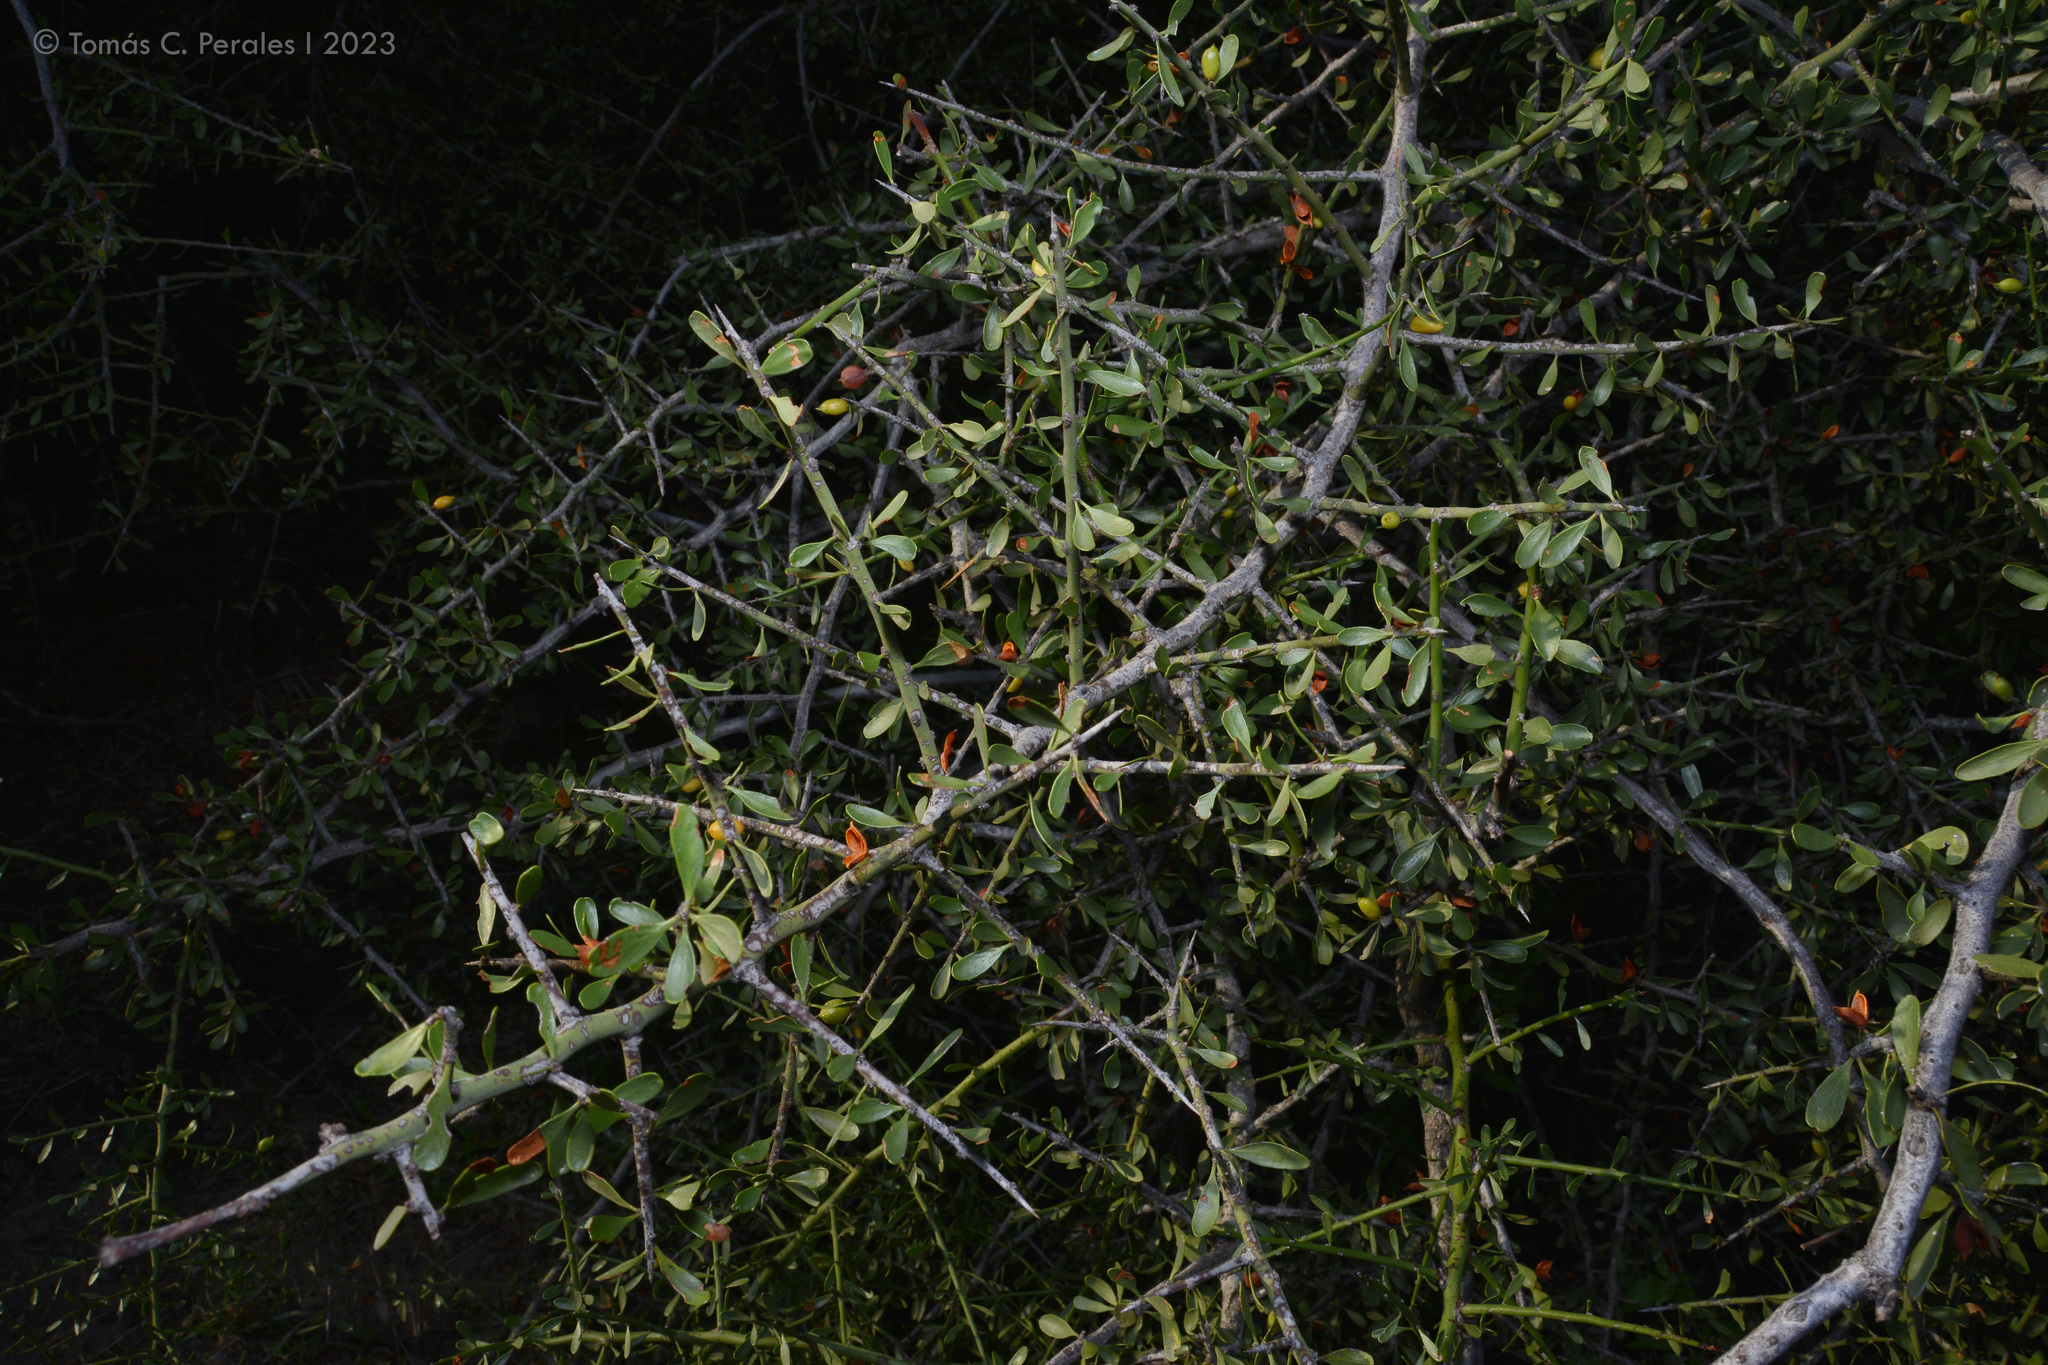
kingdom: Plantae
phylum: Tracheophyta
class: Magnoliopsida
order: Celastrales
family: Celastraceae
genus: Monteverdia
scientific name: Monteverdia spinosa
